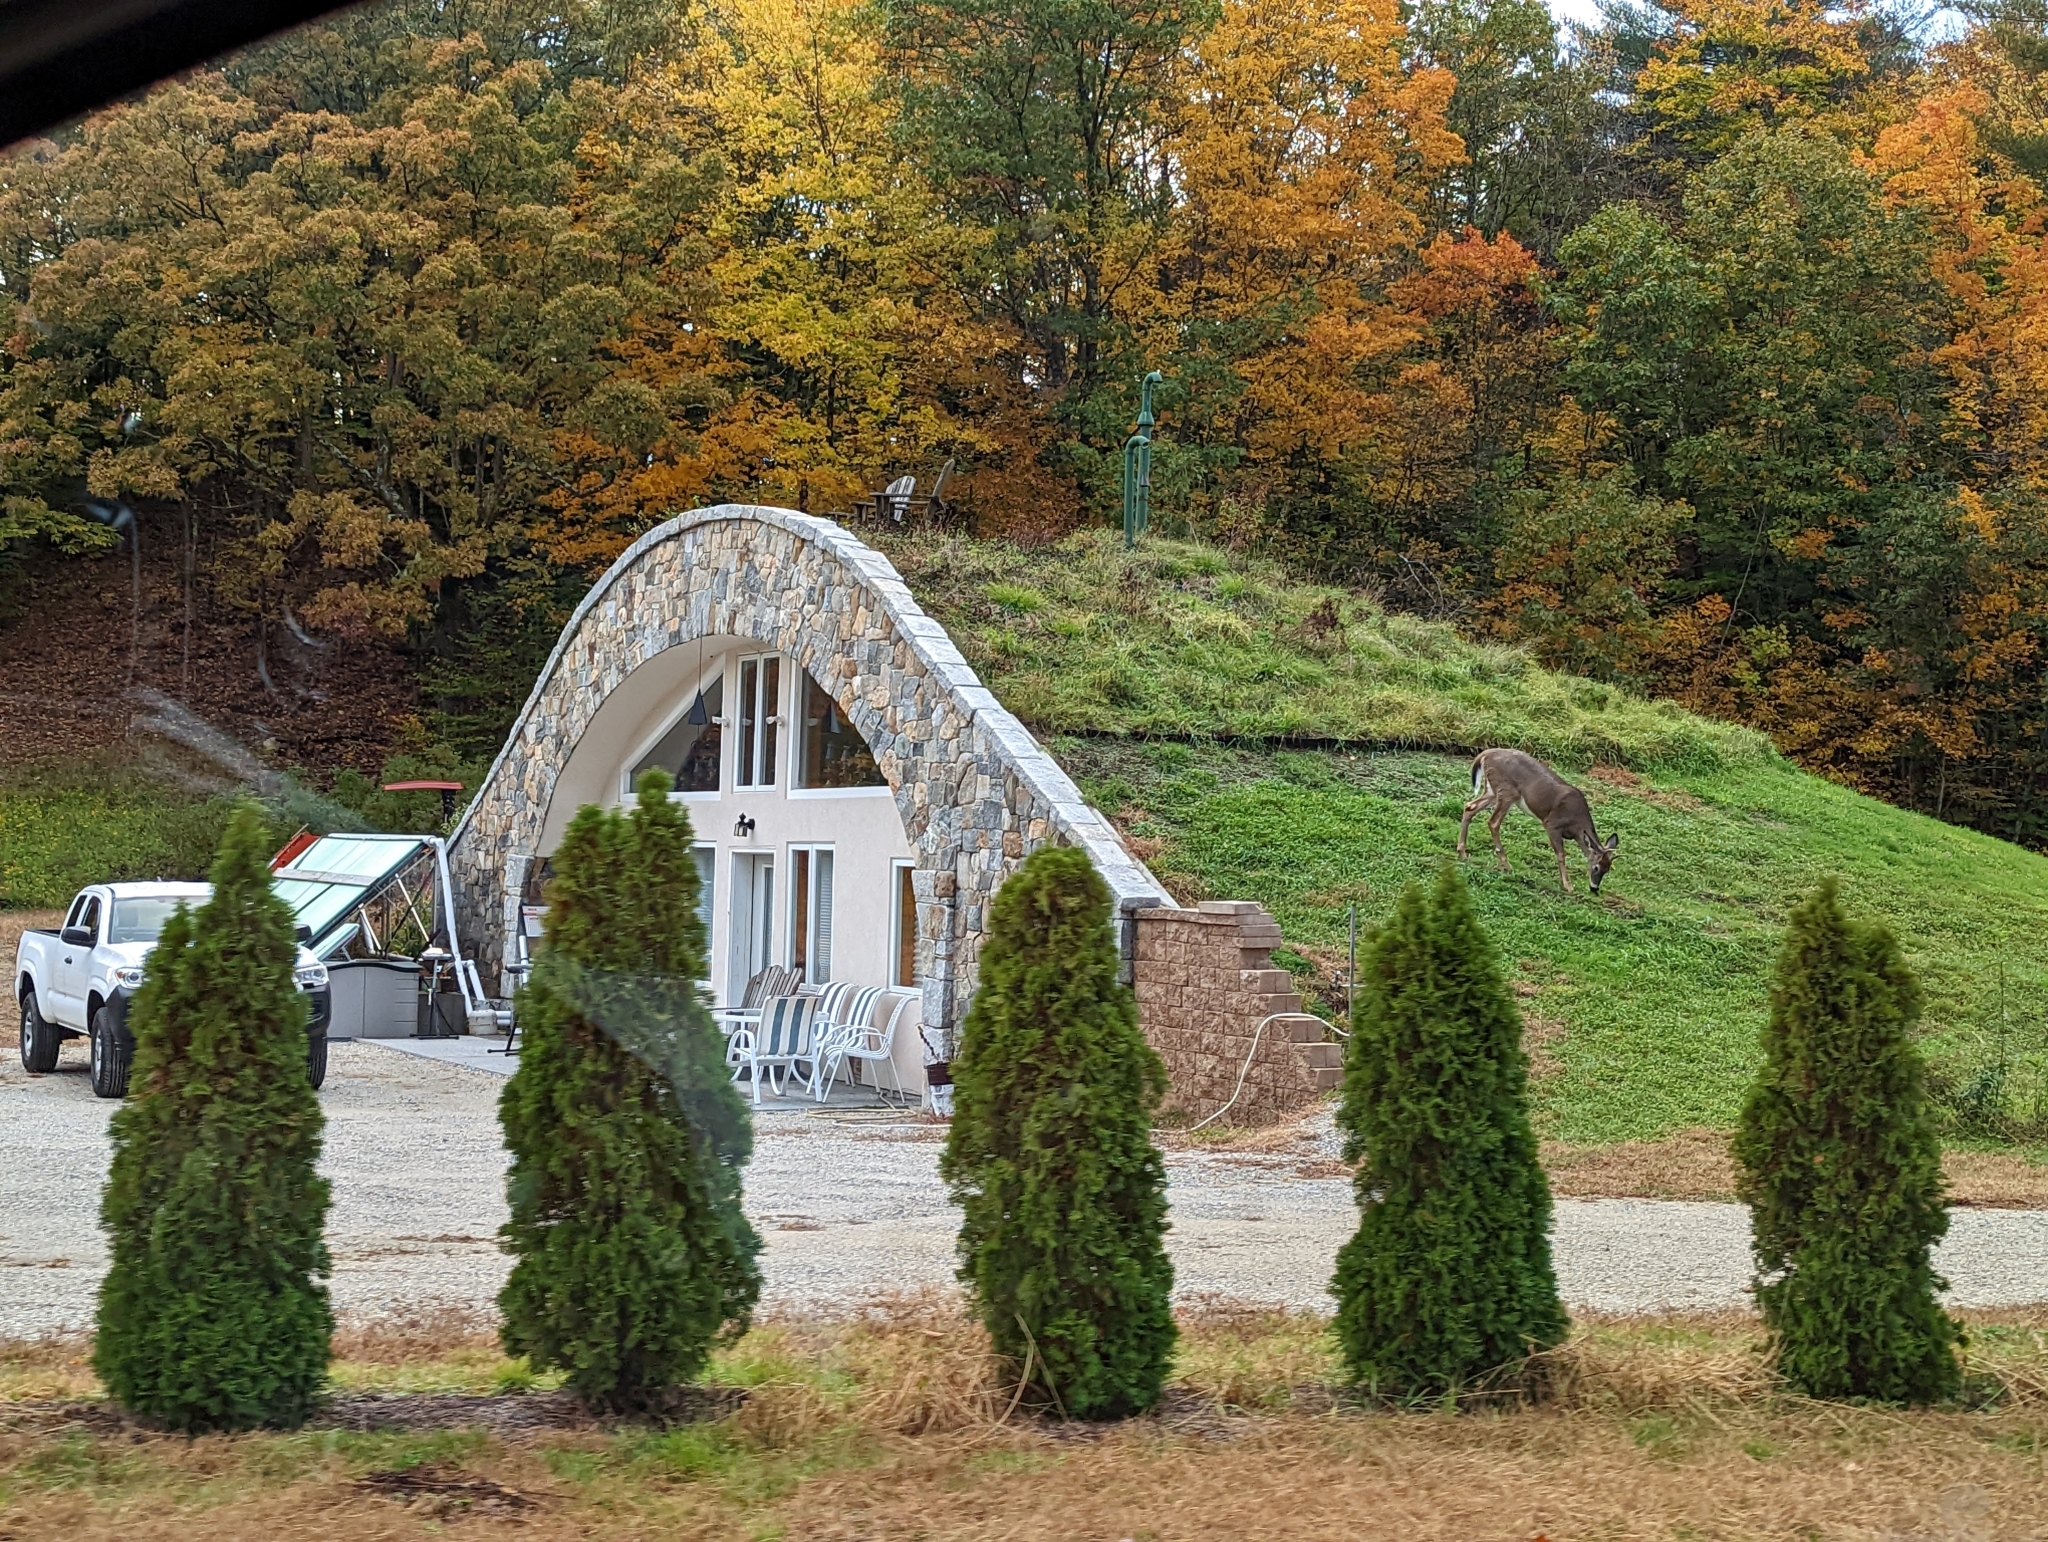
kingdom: Animalia
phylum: Chordata
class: Mammalia
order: Artiodactyla
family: Cervidae
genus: Odocoileus
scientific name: Odocoileus virginianus
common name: White-tailed deer
